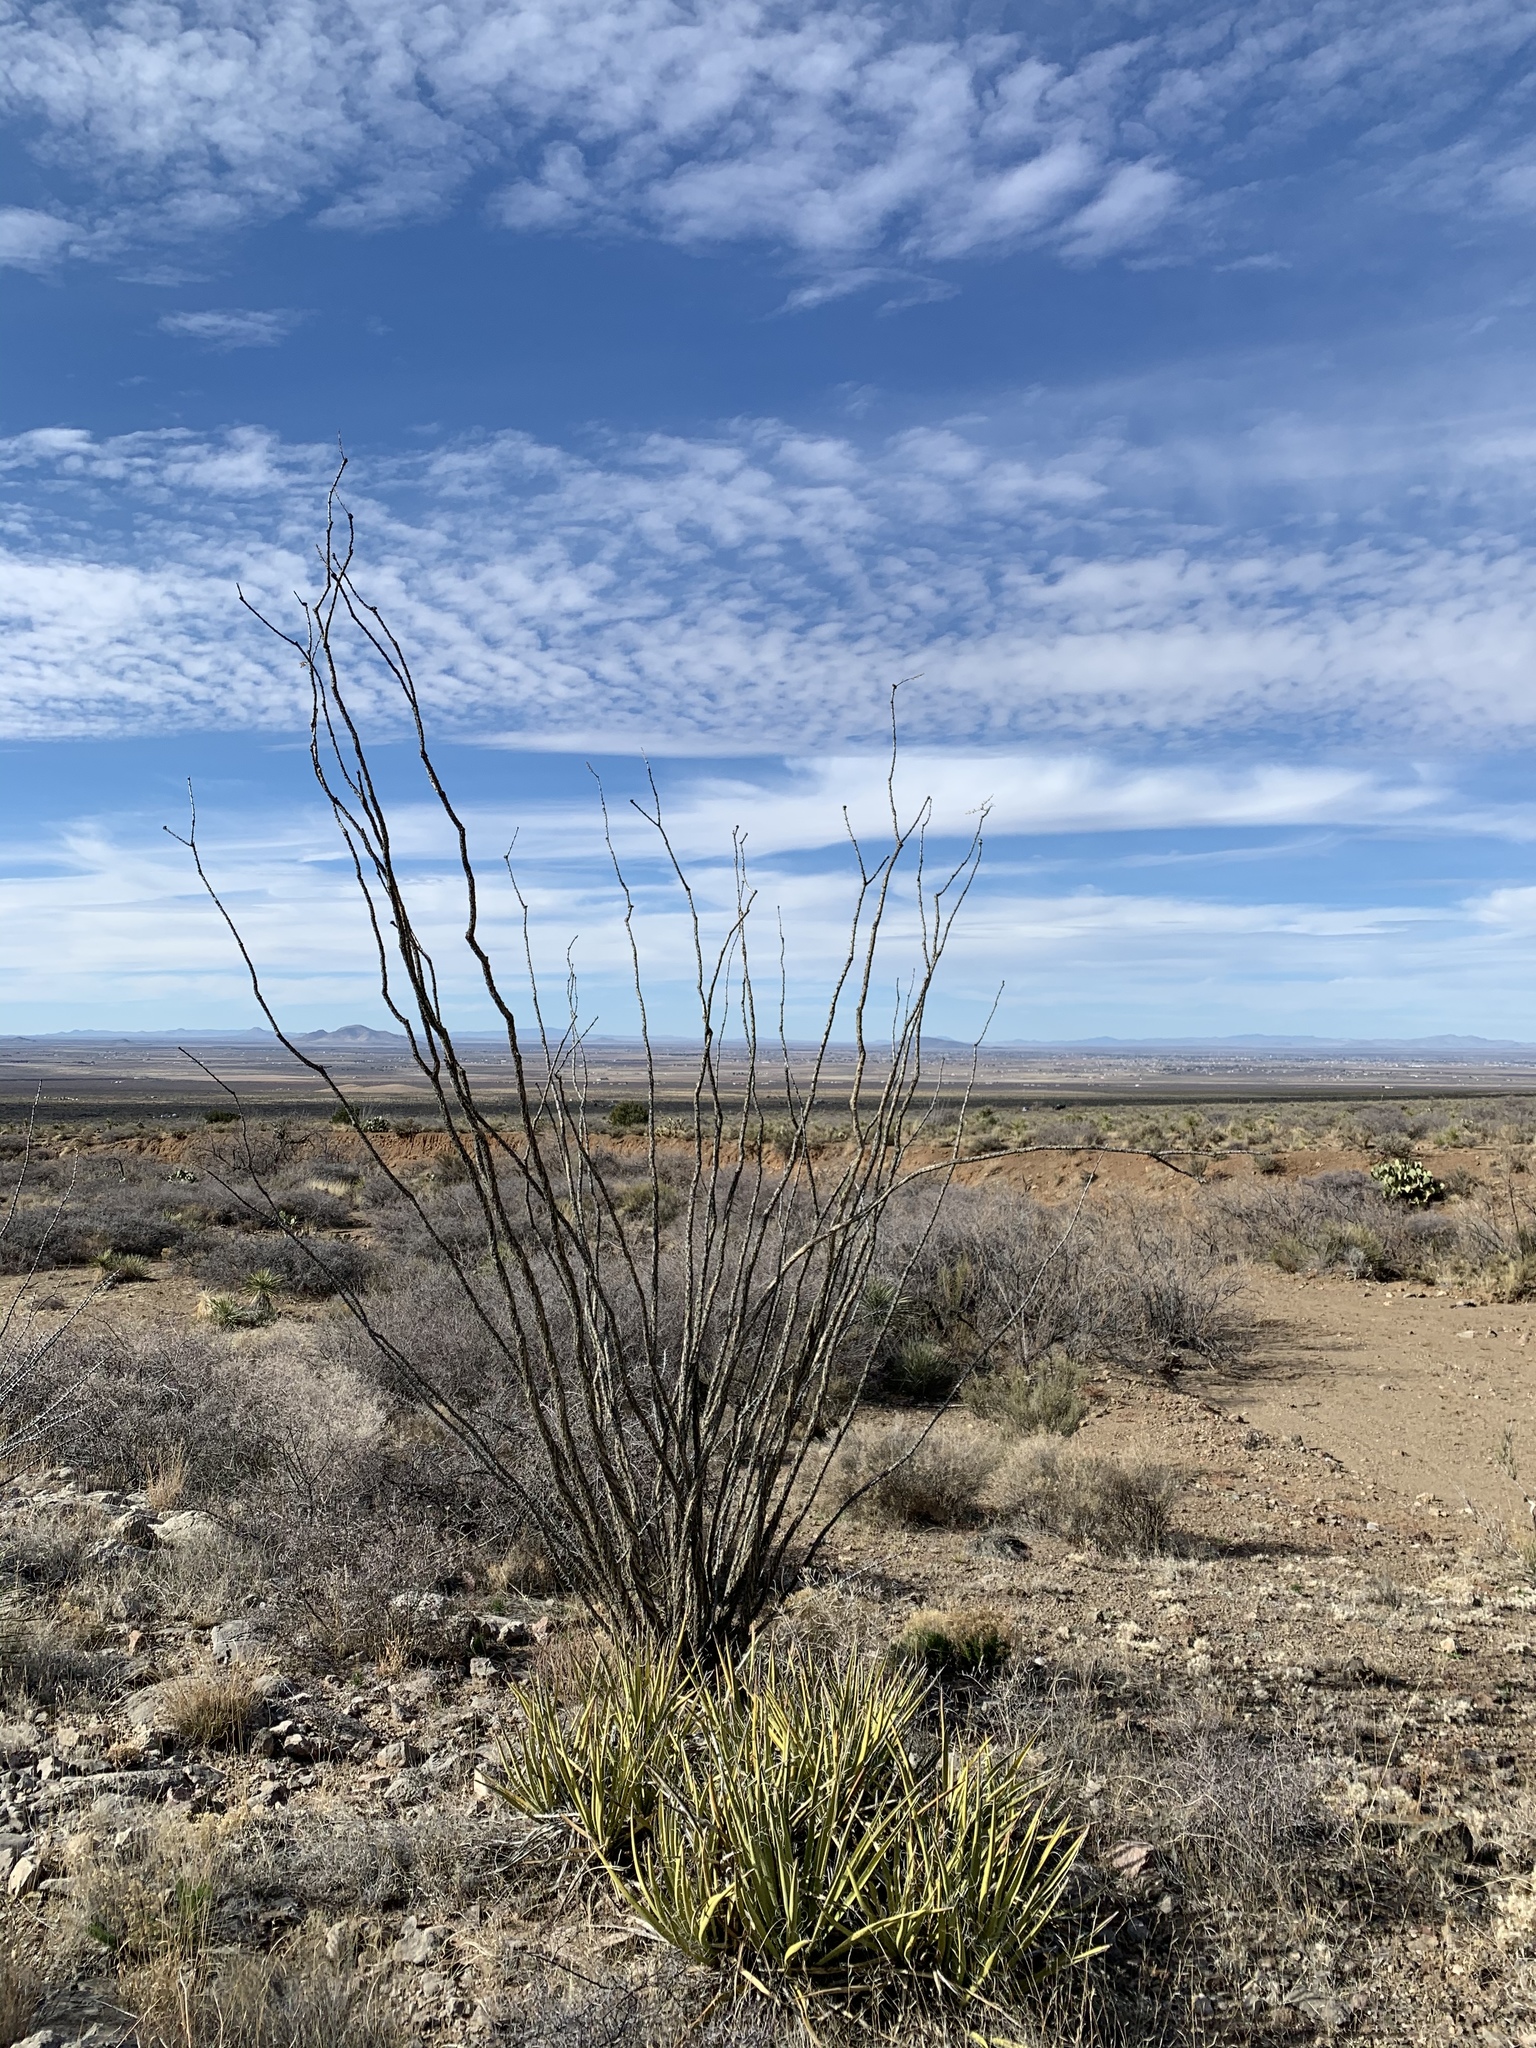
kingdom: Plantae
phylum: Tracheophyta
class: Magnoliopsida
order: Ericales
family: Fouquieriaceae
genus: Fouquieria
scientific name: Fouquieria splendens
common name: Vine-cactus
